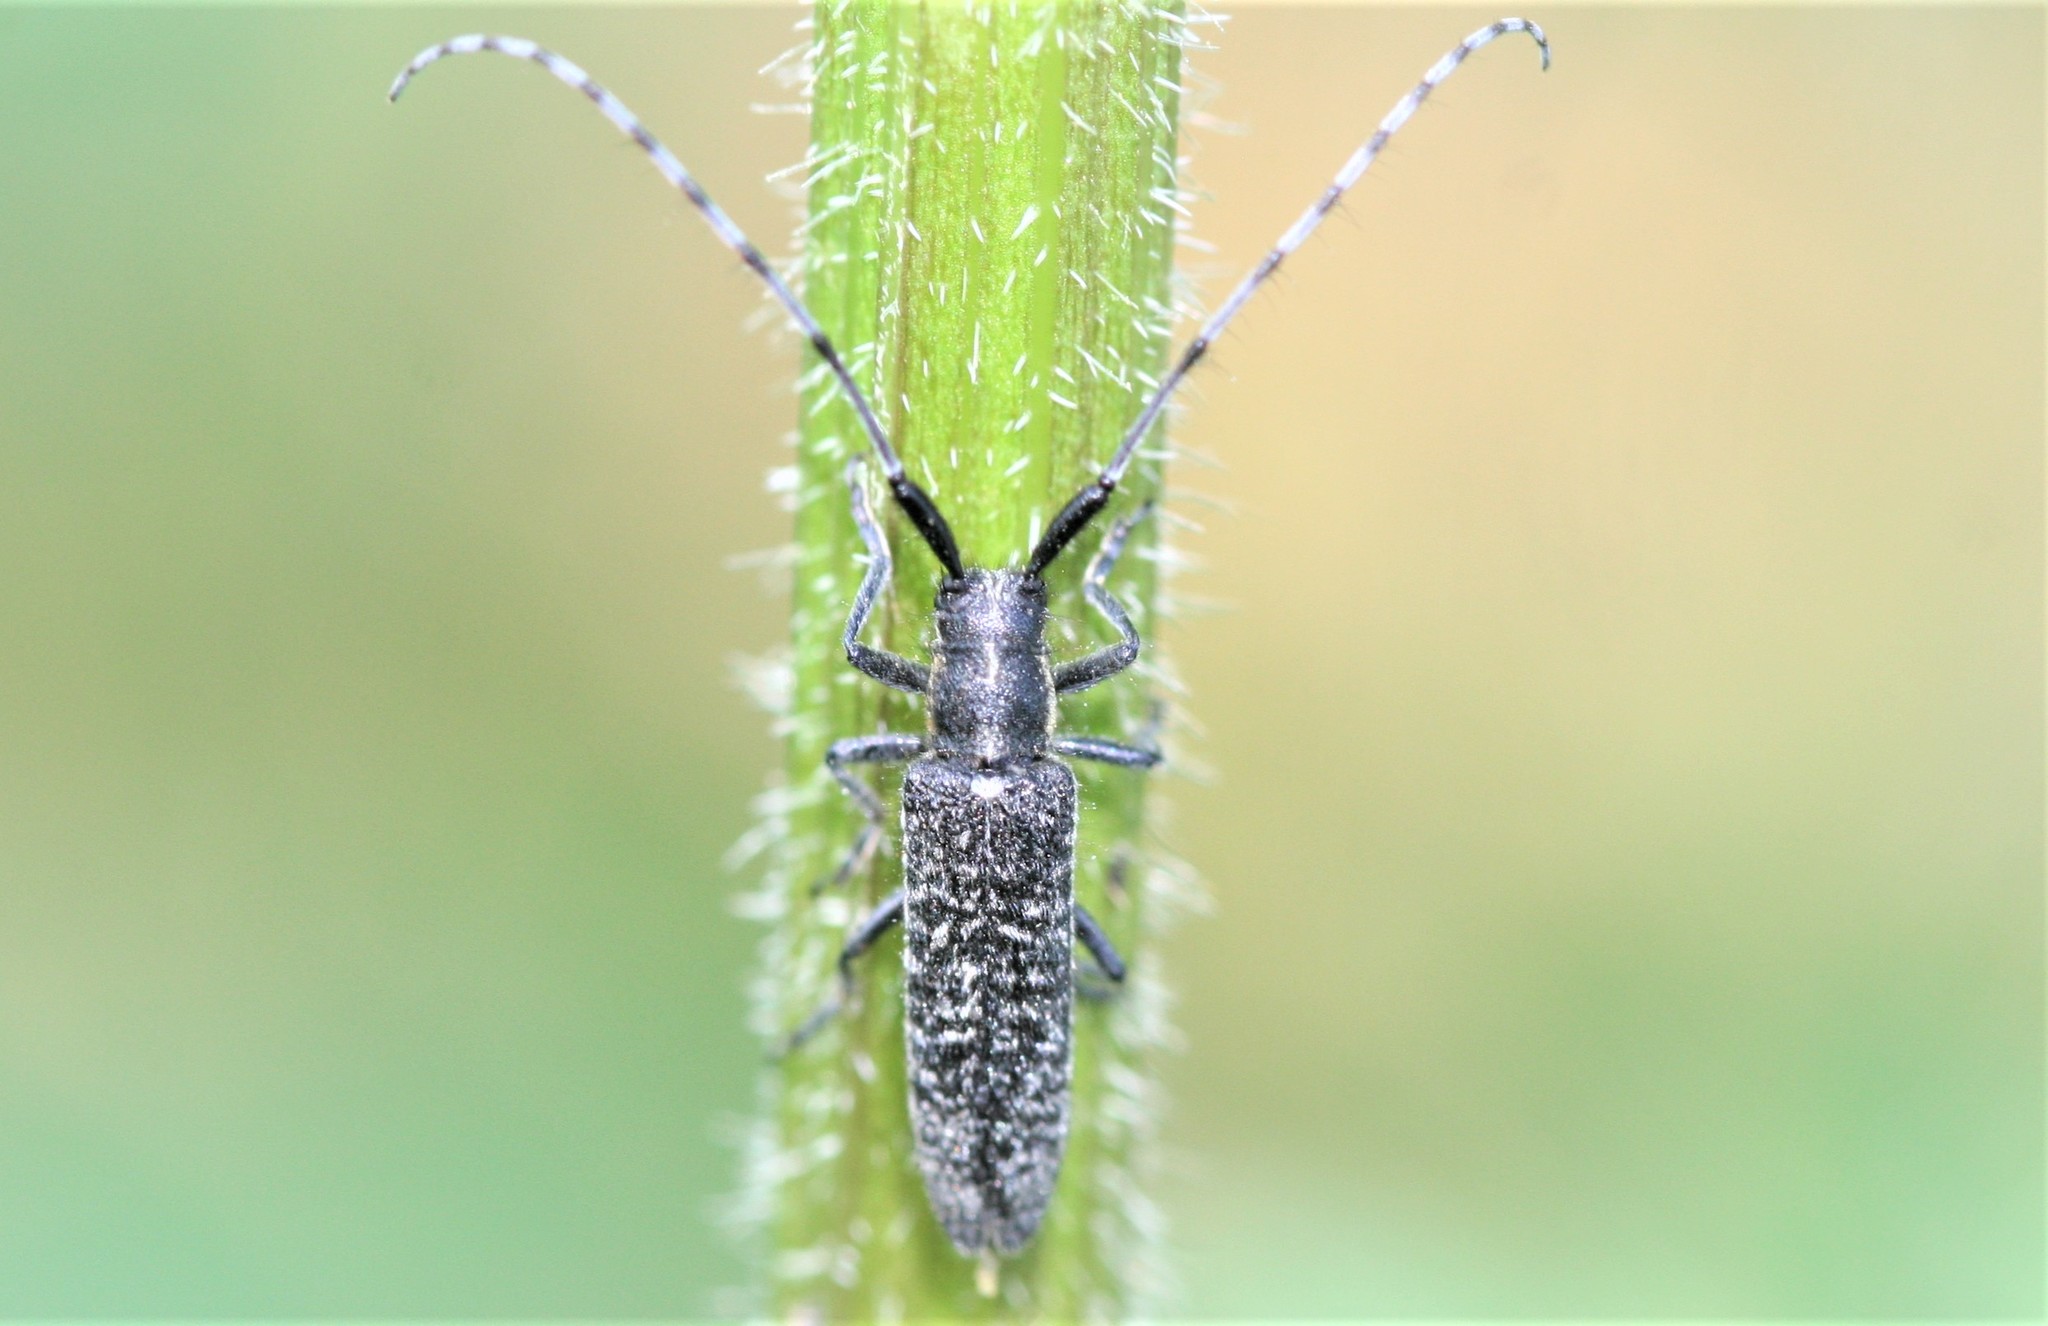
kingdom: Animalia
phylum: Arthropoda
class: Insecta
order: Coleoptera
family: Cerambycidae
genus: Agapanthia
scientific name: Agapanthia villosoviridescens
